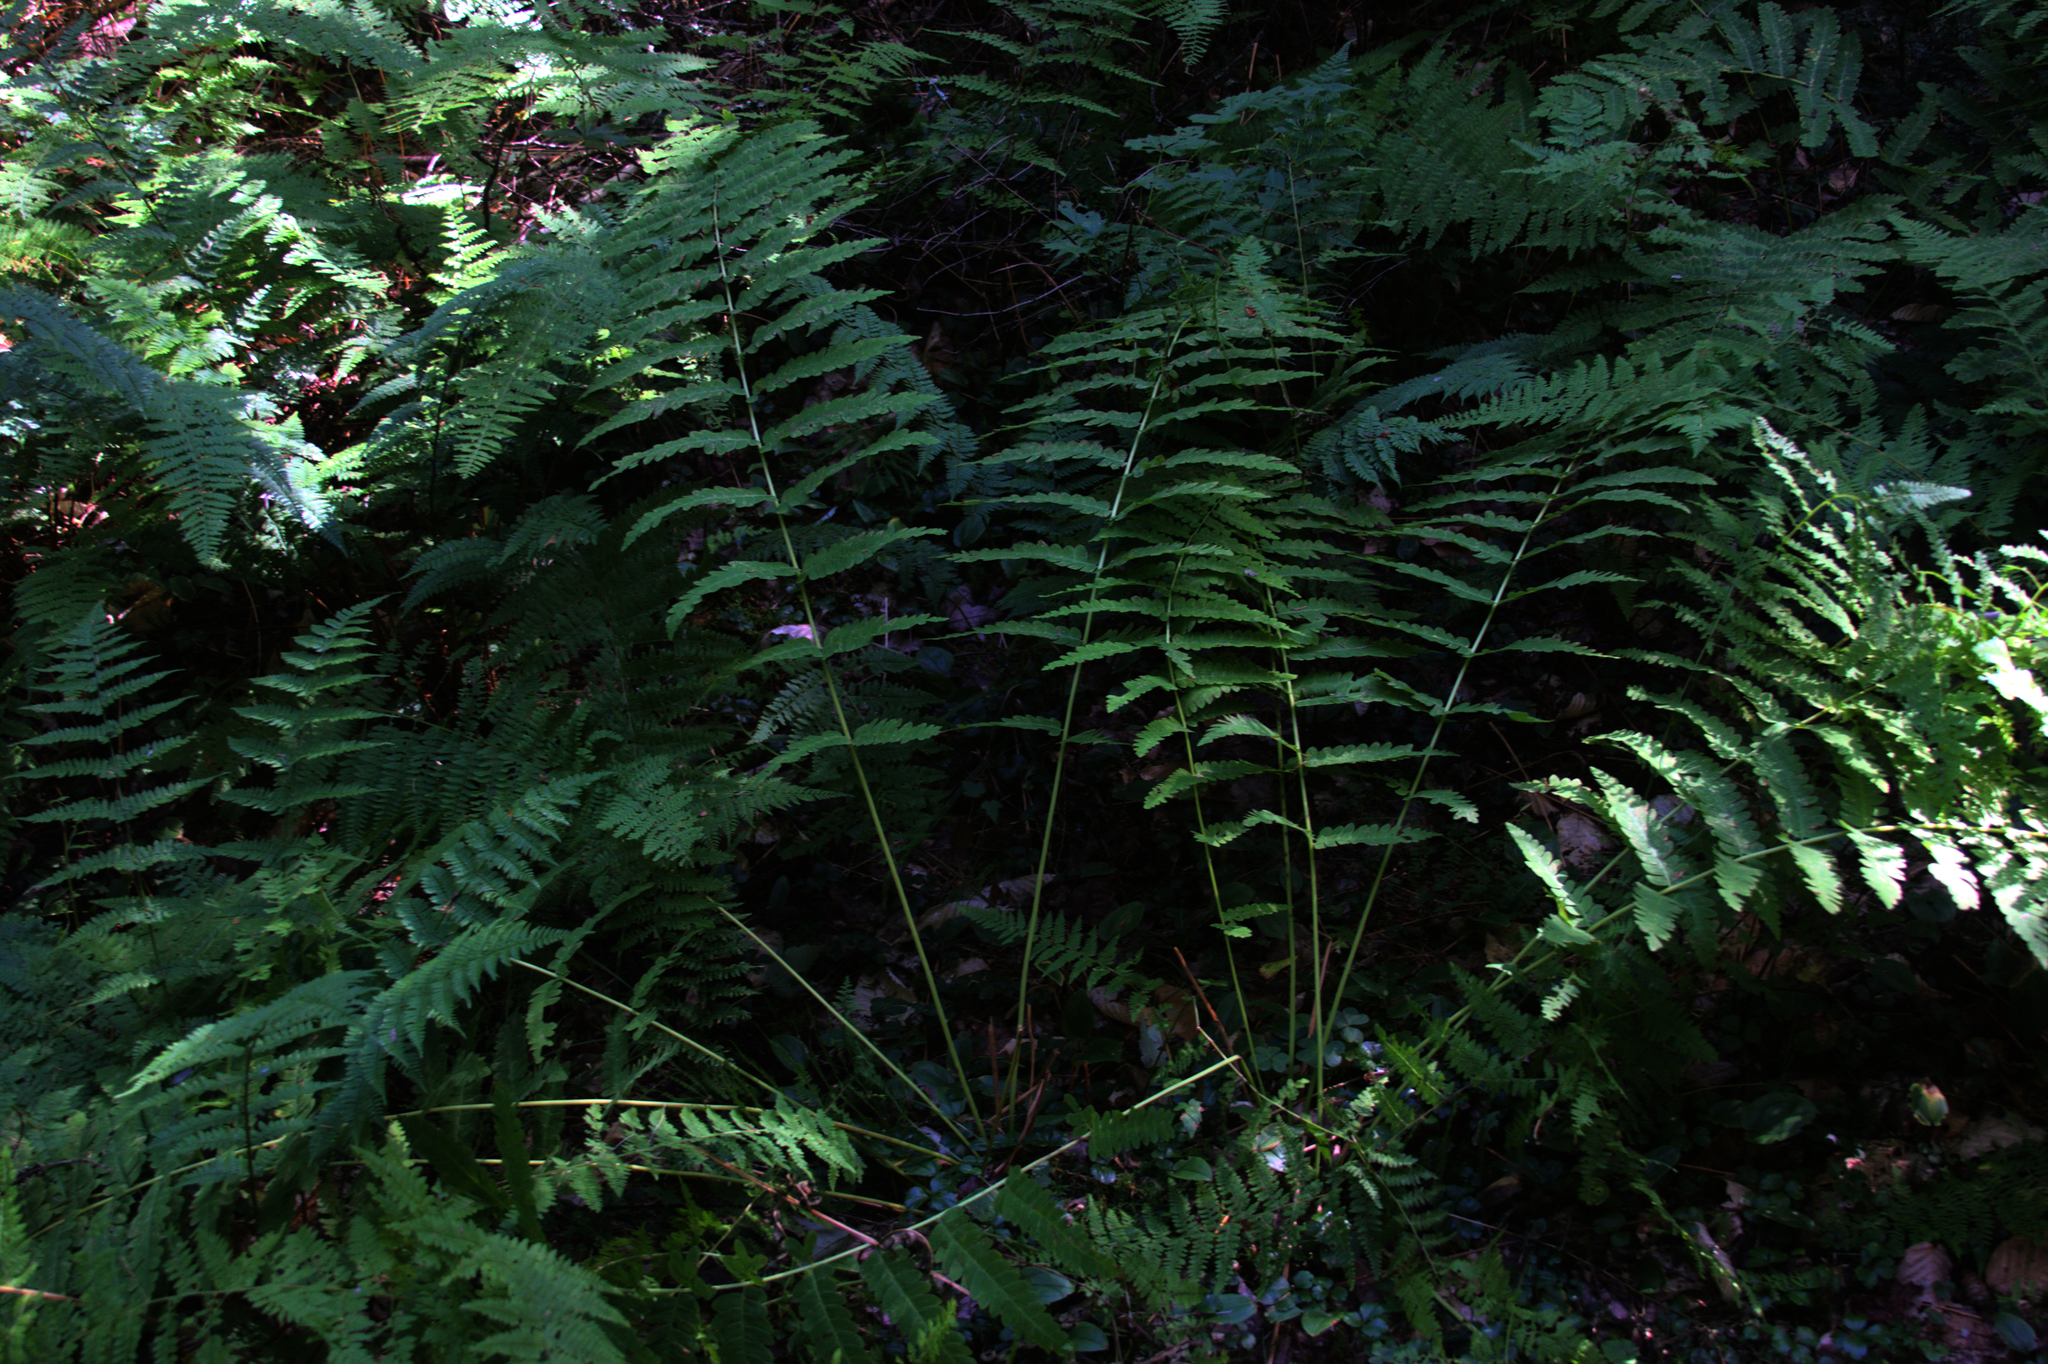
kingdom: Plantae
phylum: Tracheophyta
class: Polypodiopsida
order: Osmundales
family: Osmundaceae
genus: Claytosmunda
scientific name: Claytosmunda claytoniana
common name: Clayton's fern
